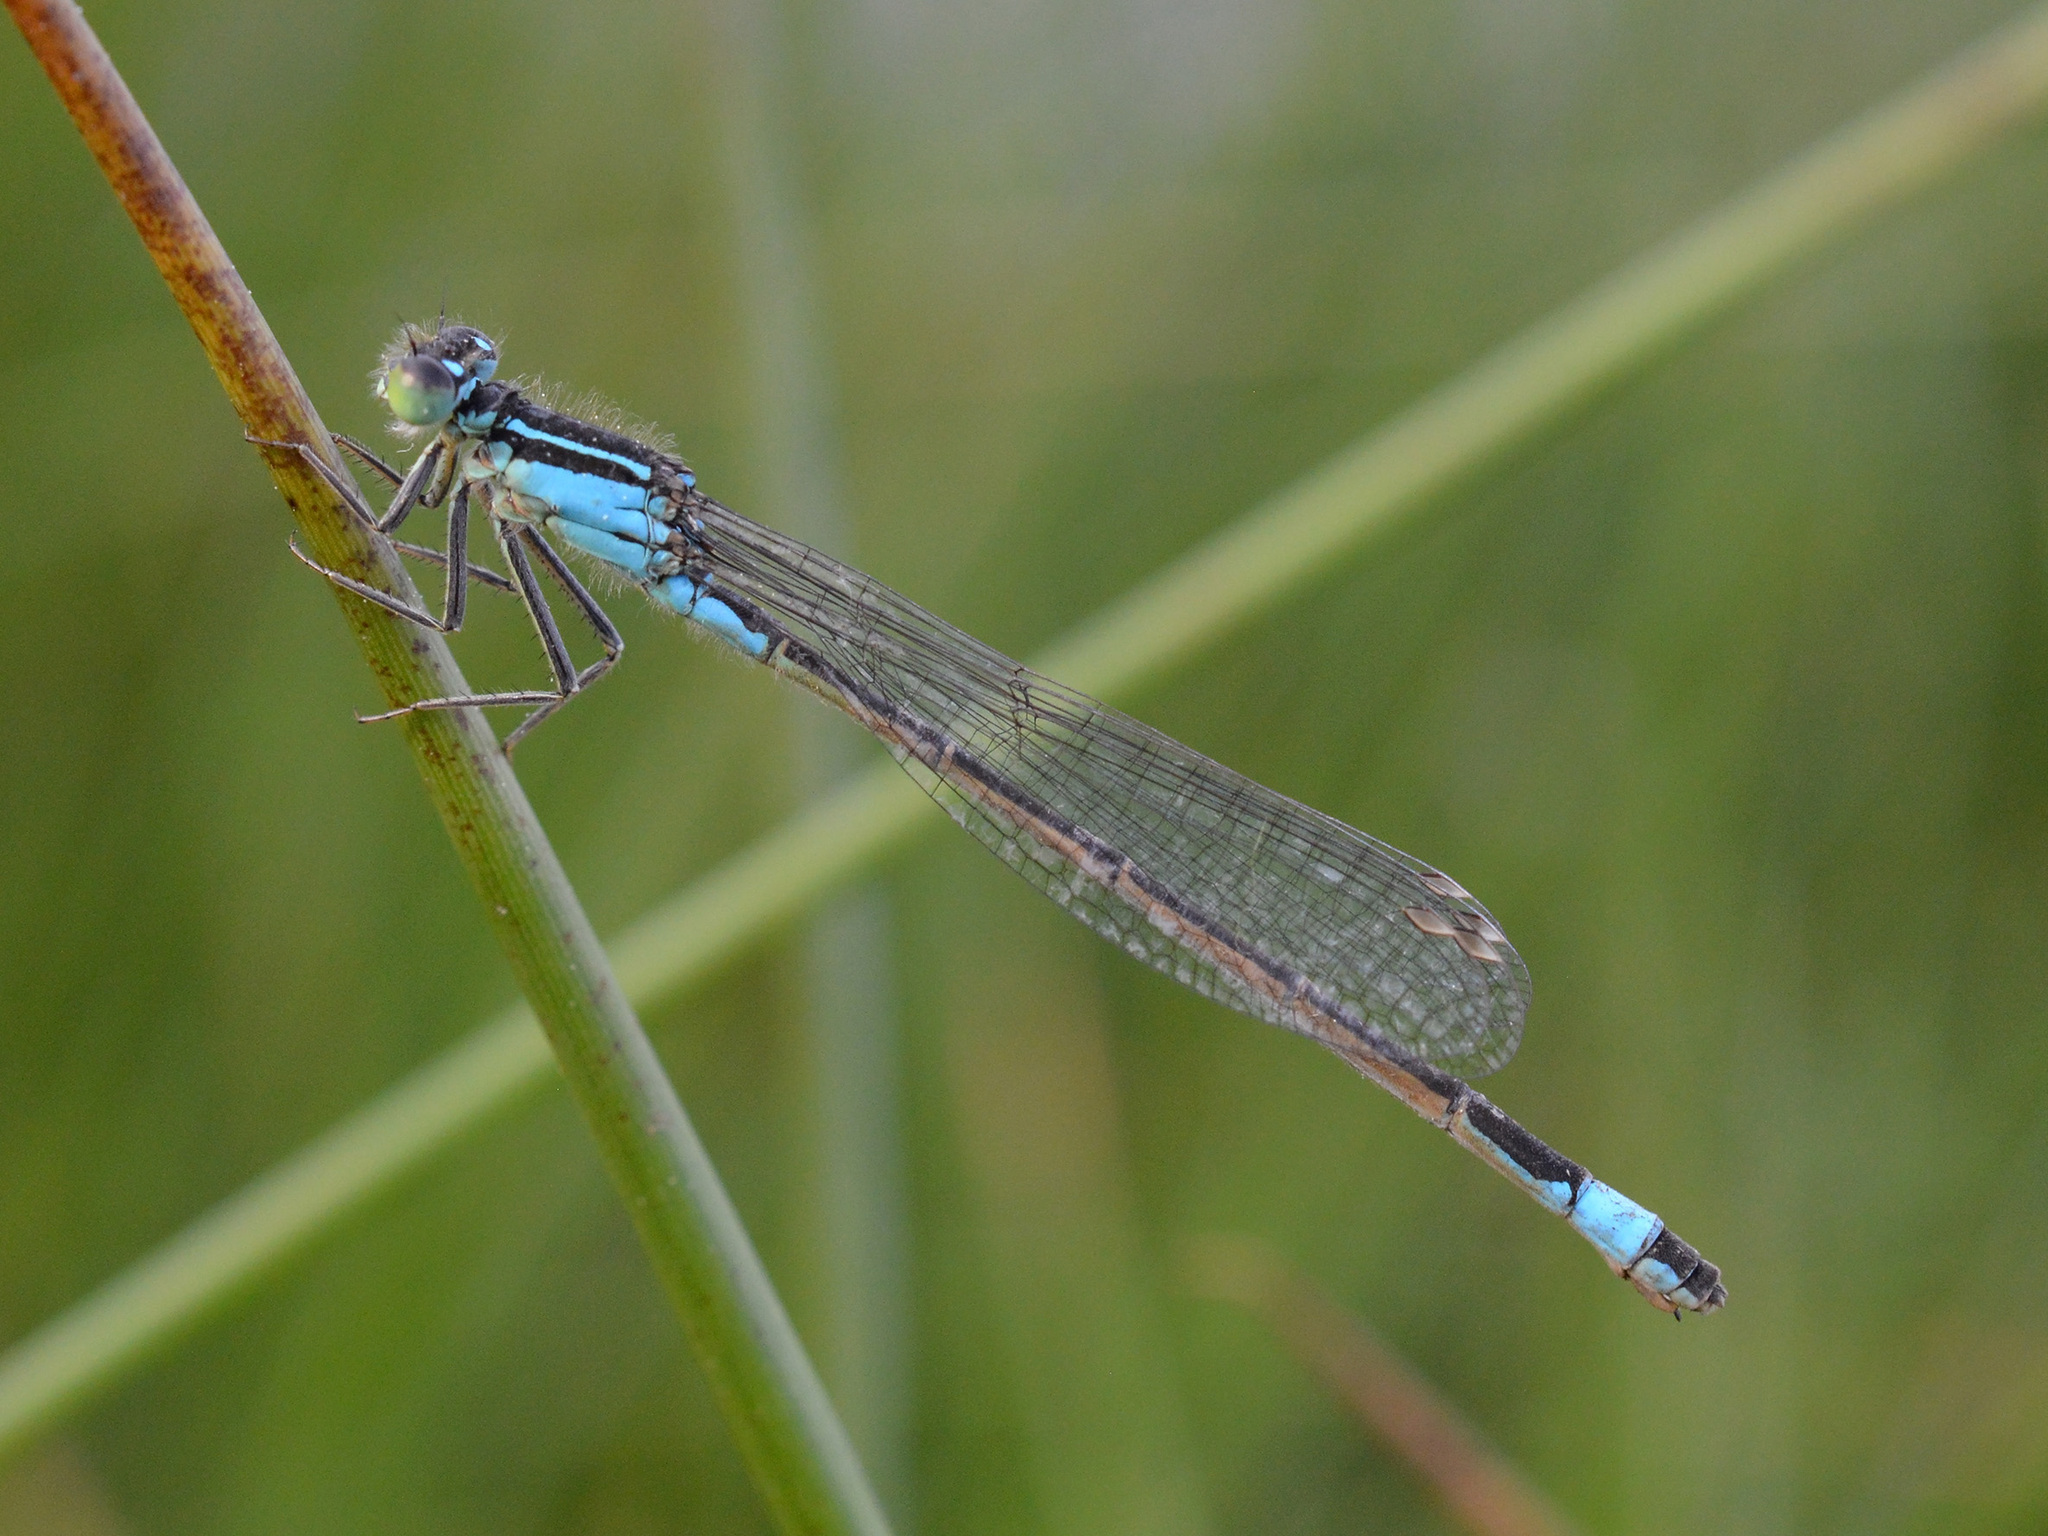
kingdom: Animalia
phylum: Arthropoda
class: Insecta
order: Odonata
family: Coenagrionidae
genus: Ischnura
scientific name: Ischnura elegans
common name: Blue-tailed damselfly
